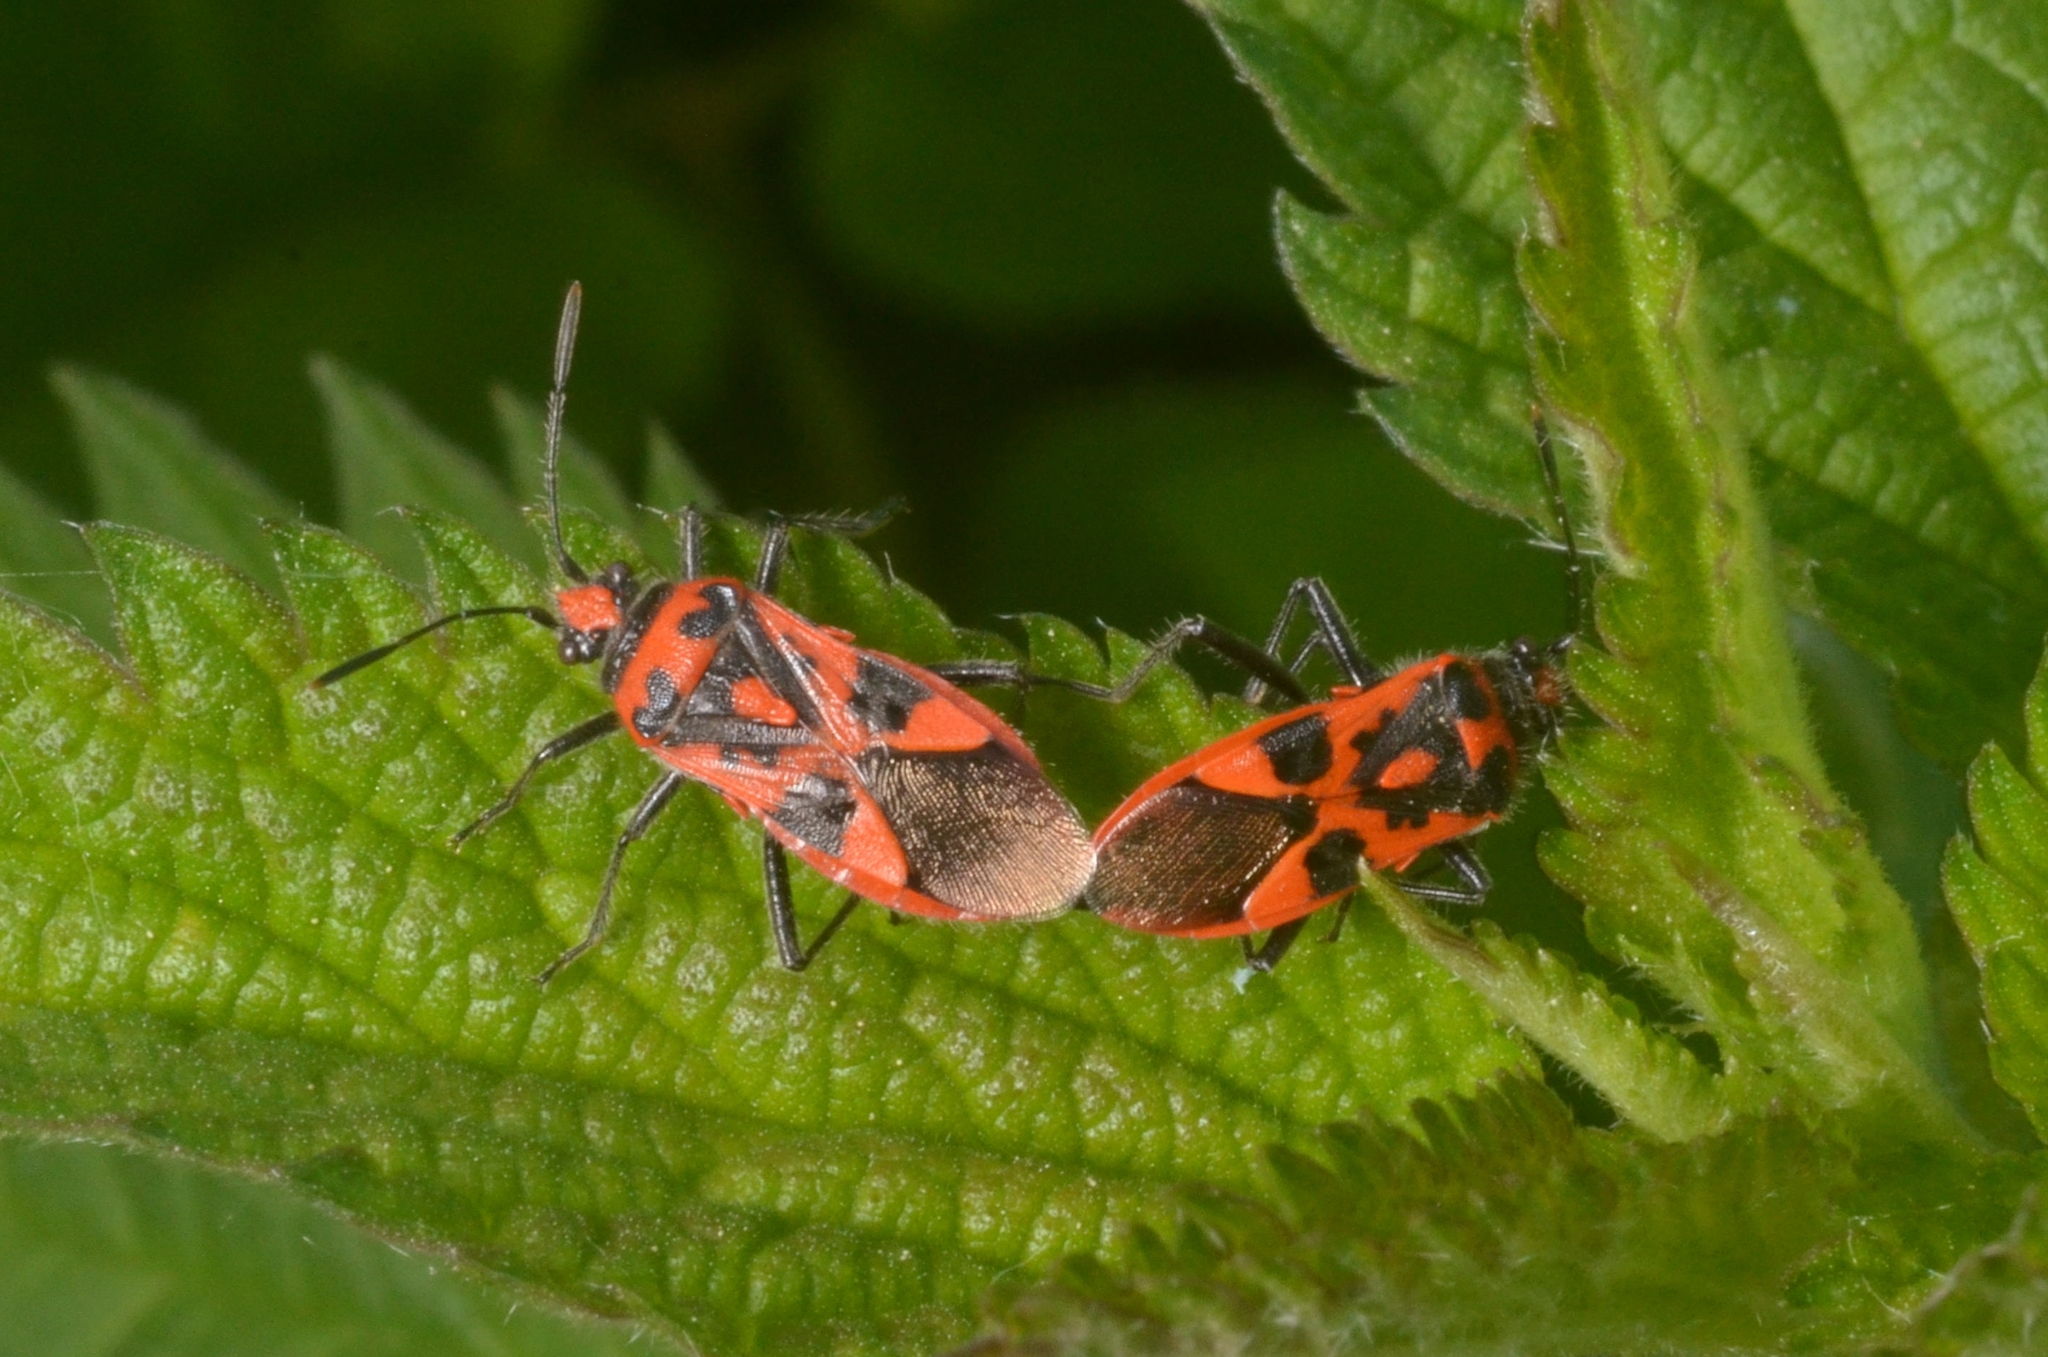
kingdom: Animalia
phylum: Arthropoda
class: Insecta
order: Hemiptera
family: Rhopalidae
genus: Corizus
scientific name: Corizus hyoscyami
